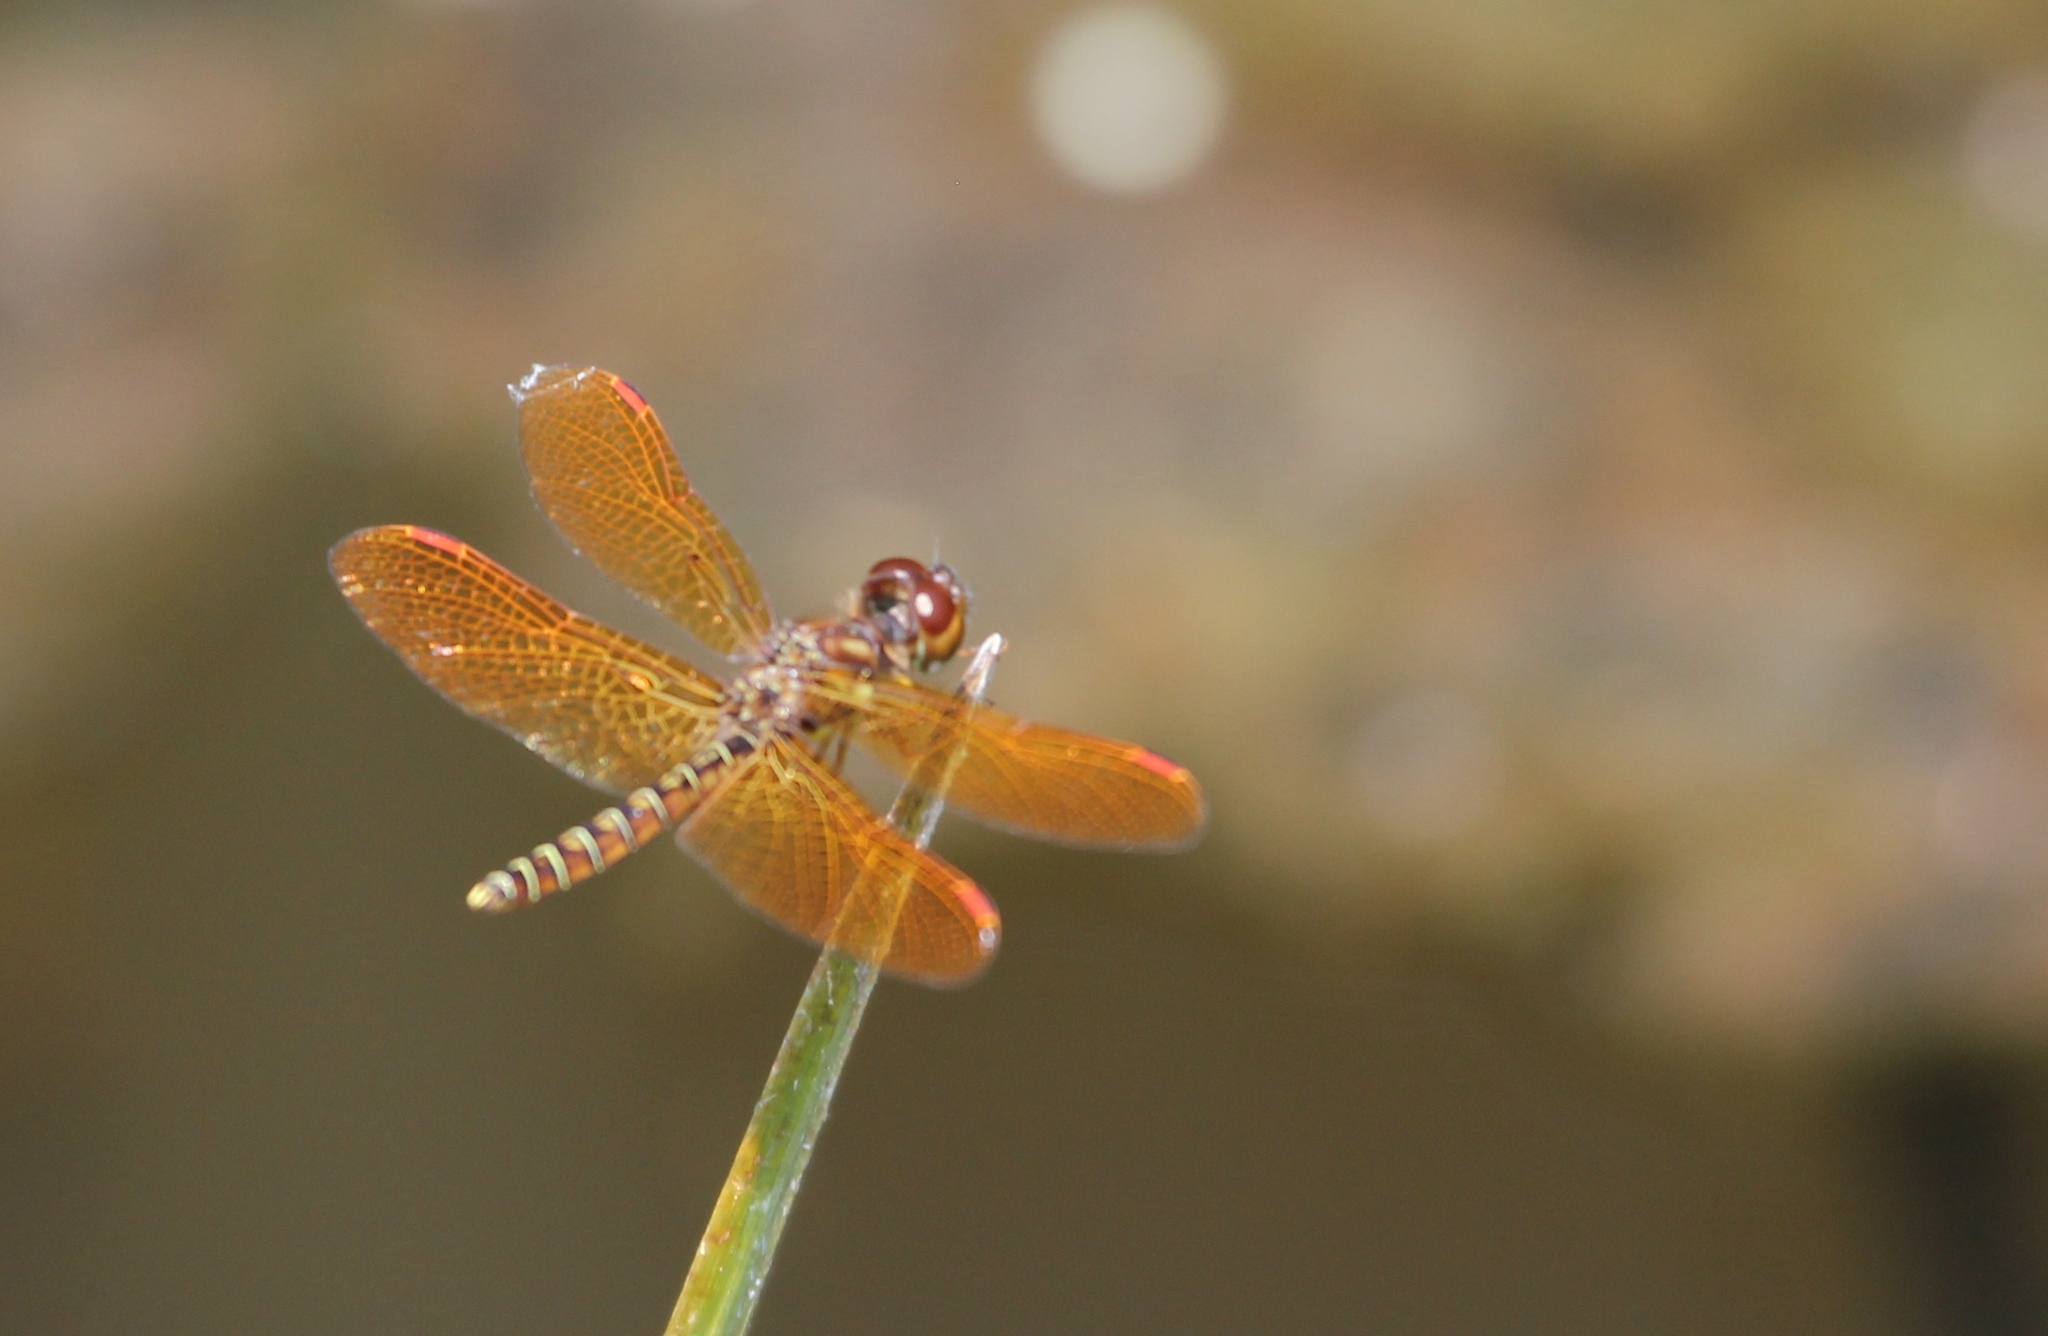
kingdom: Animalia
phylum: Arthropoda
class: Insecta
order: Odonata
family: Libellulidae
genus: Perithemis
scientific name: Perithemis tenera
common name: Eastern amberwing
